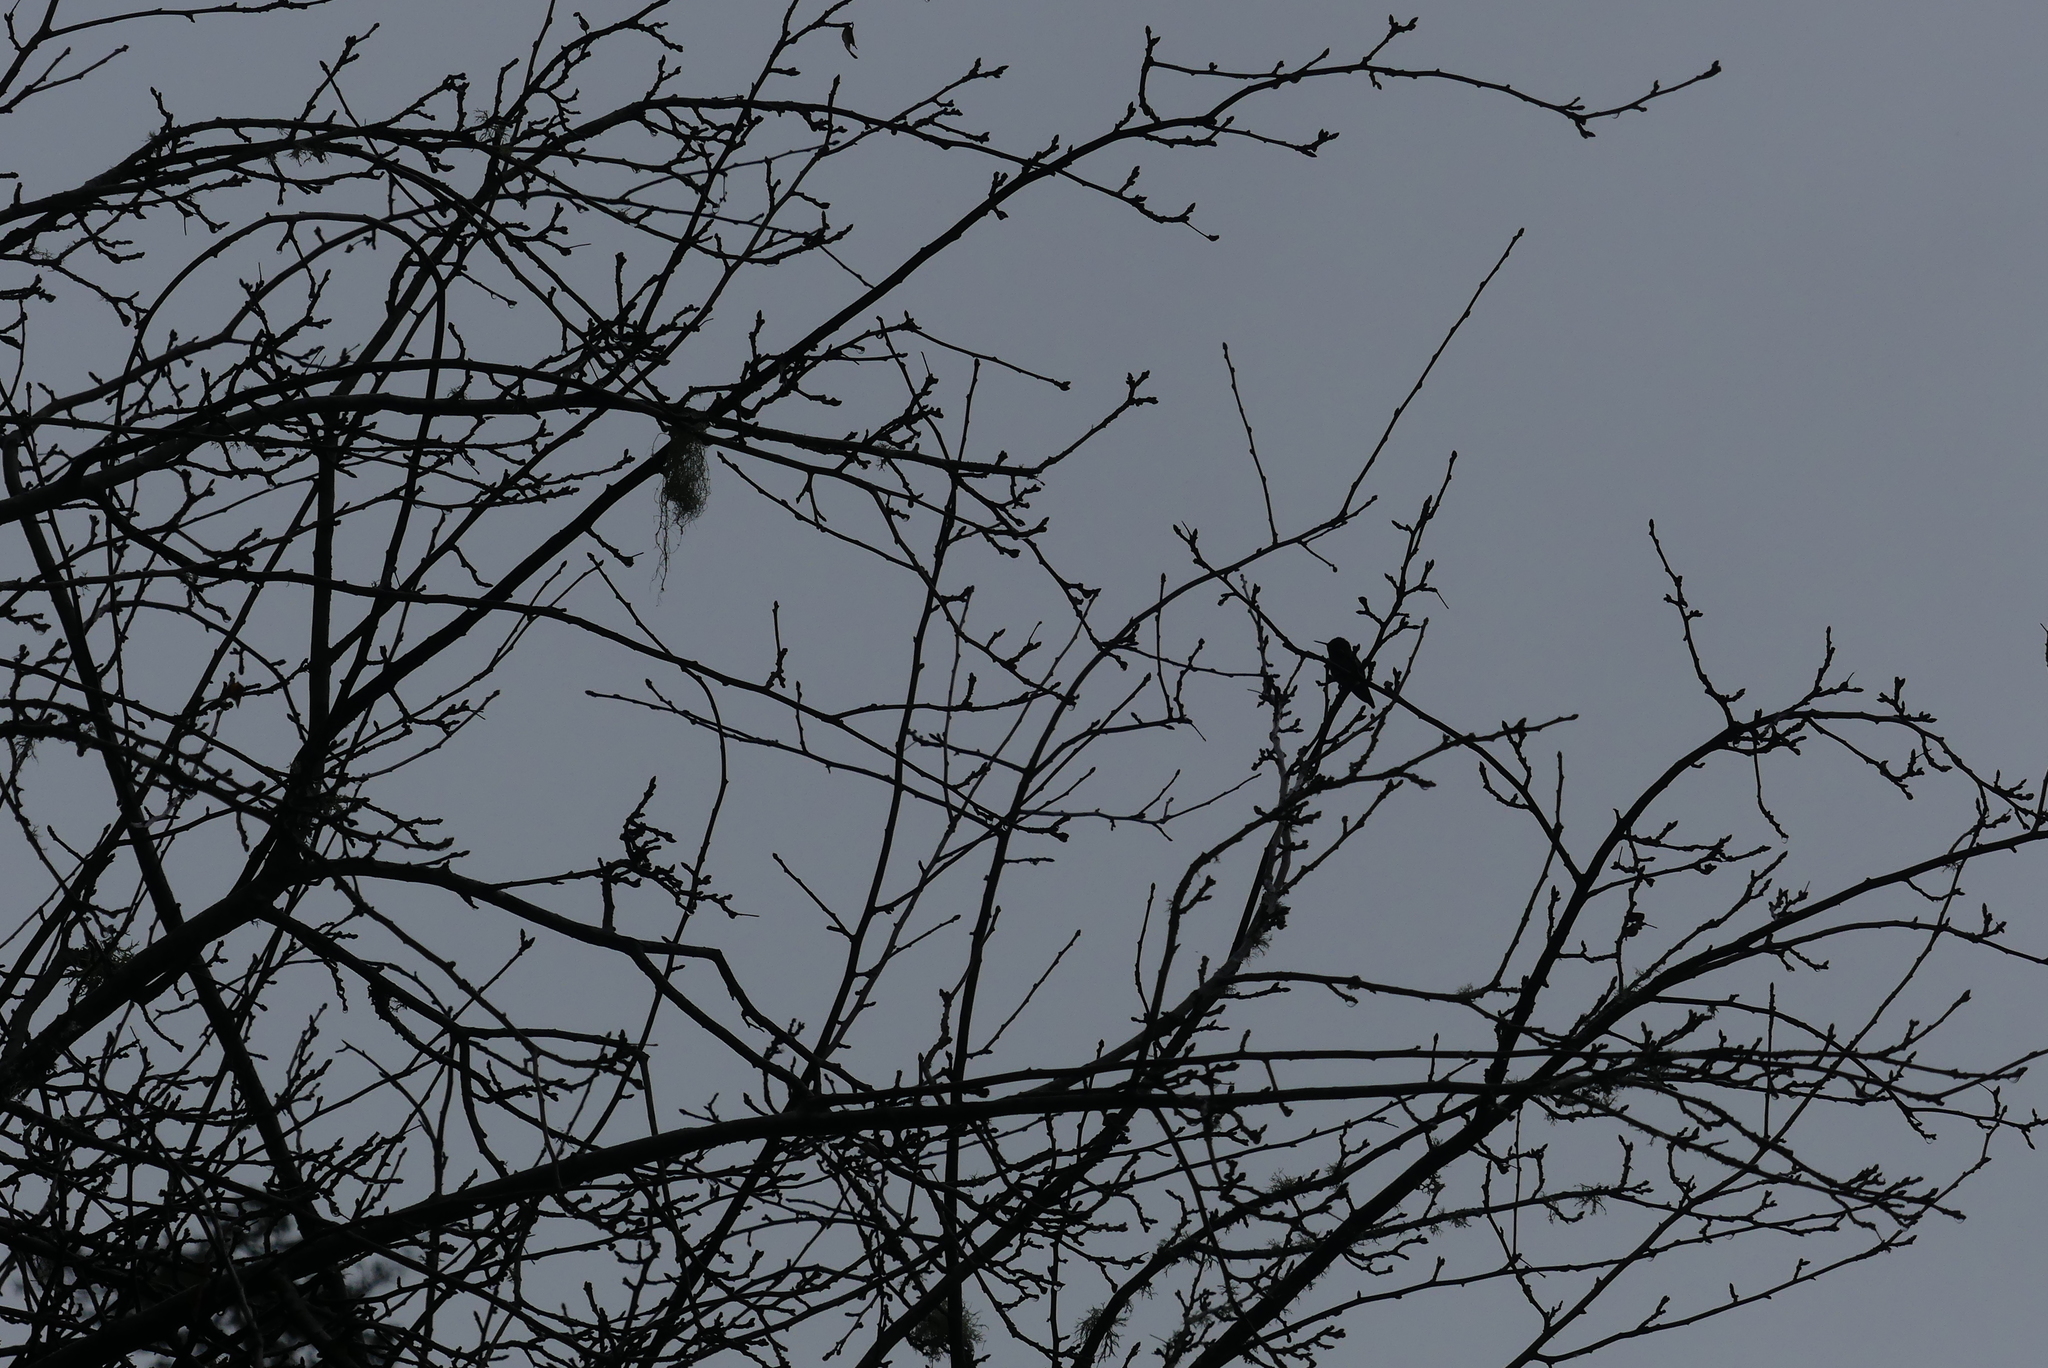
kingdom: Animalia
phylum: Chordata
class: Aves
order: Apodiformes
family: Trochilidae
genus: Calypte
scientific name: Calypte anna
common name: Anna's hummingbird
